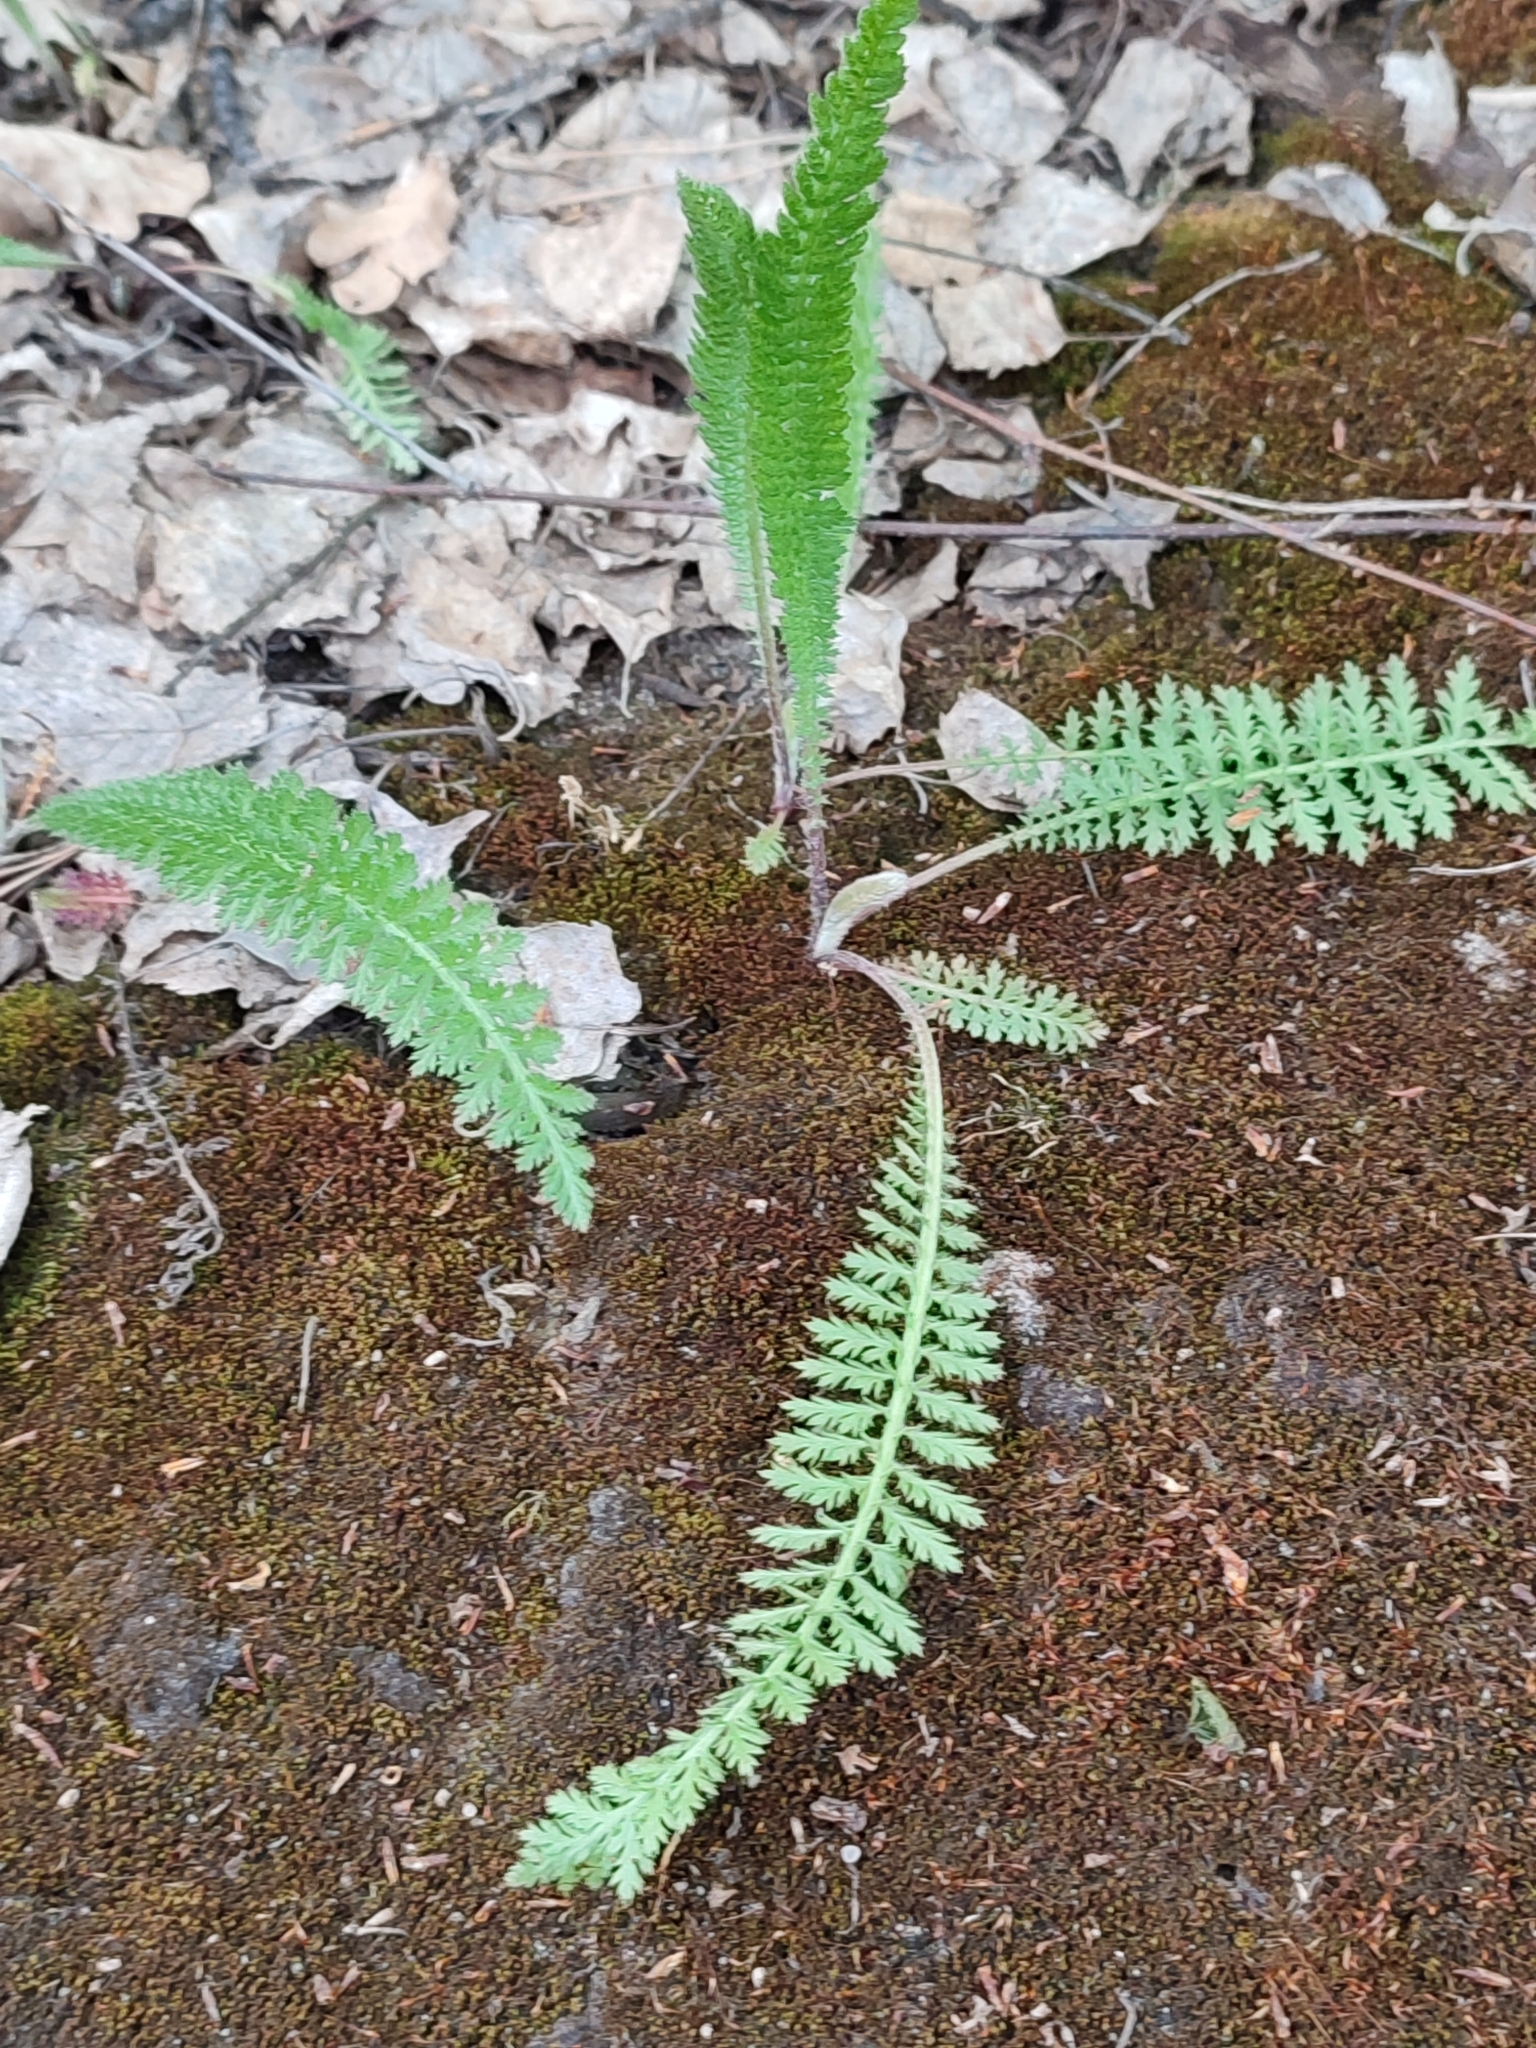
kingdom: Plantae
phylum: Tracheophyta
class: Magnoliopsida
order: Asterales
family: Asteraceae
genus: Achillea
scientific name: Achillea millefolium
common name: Yarrow
